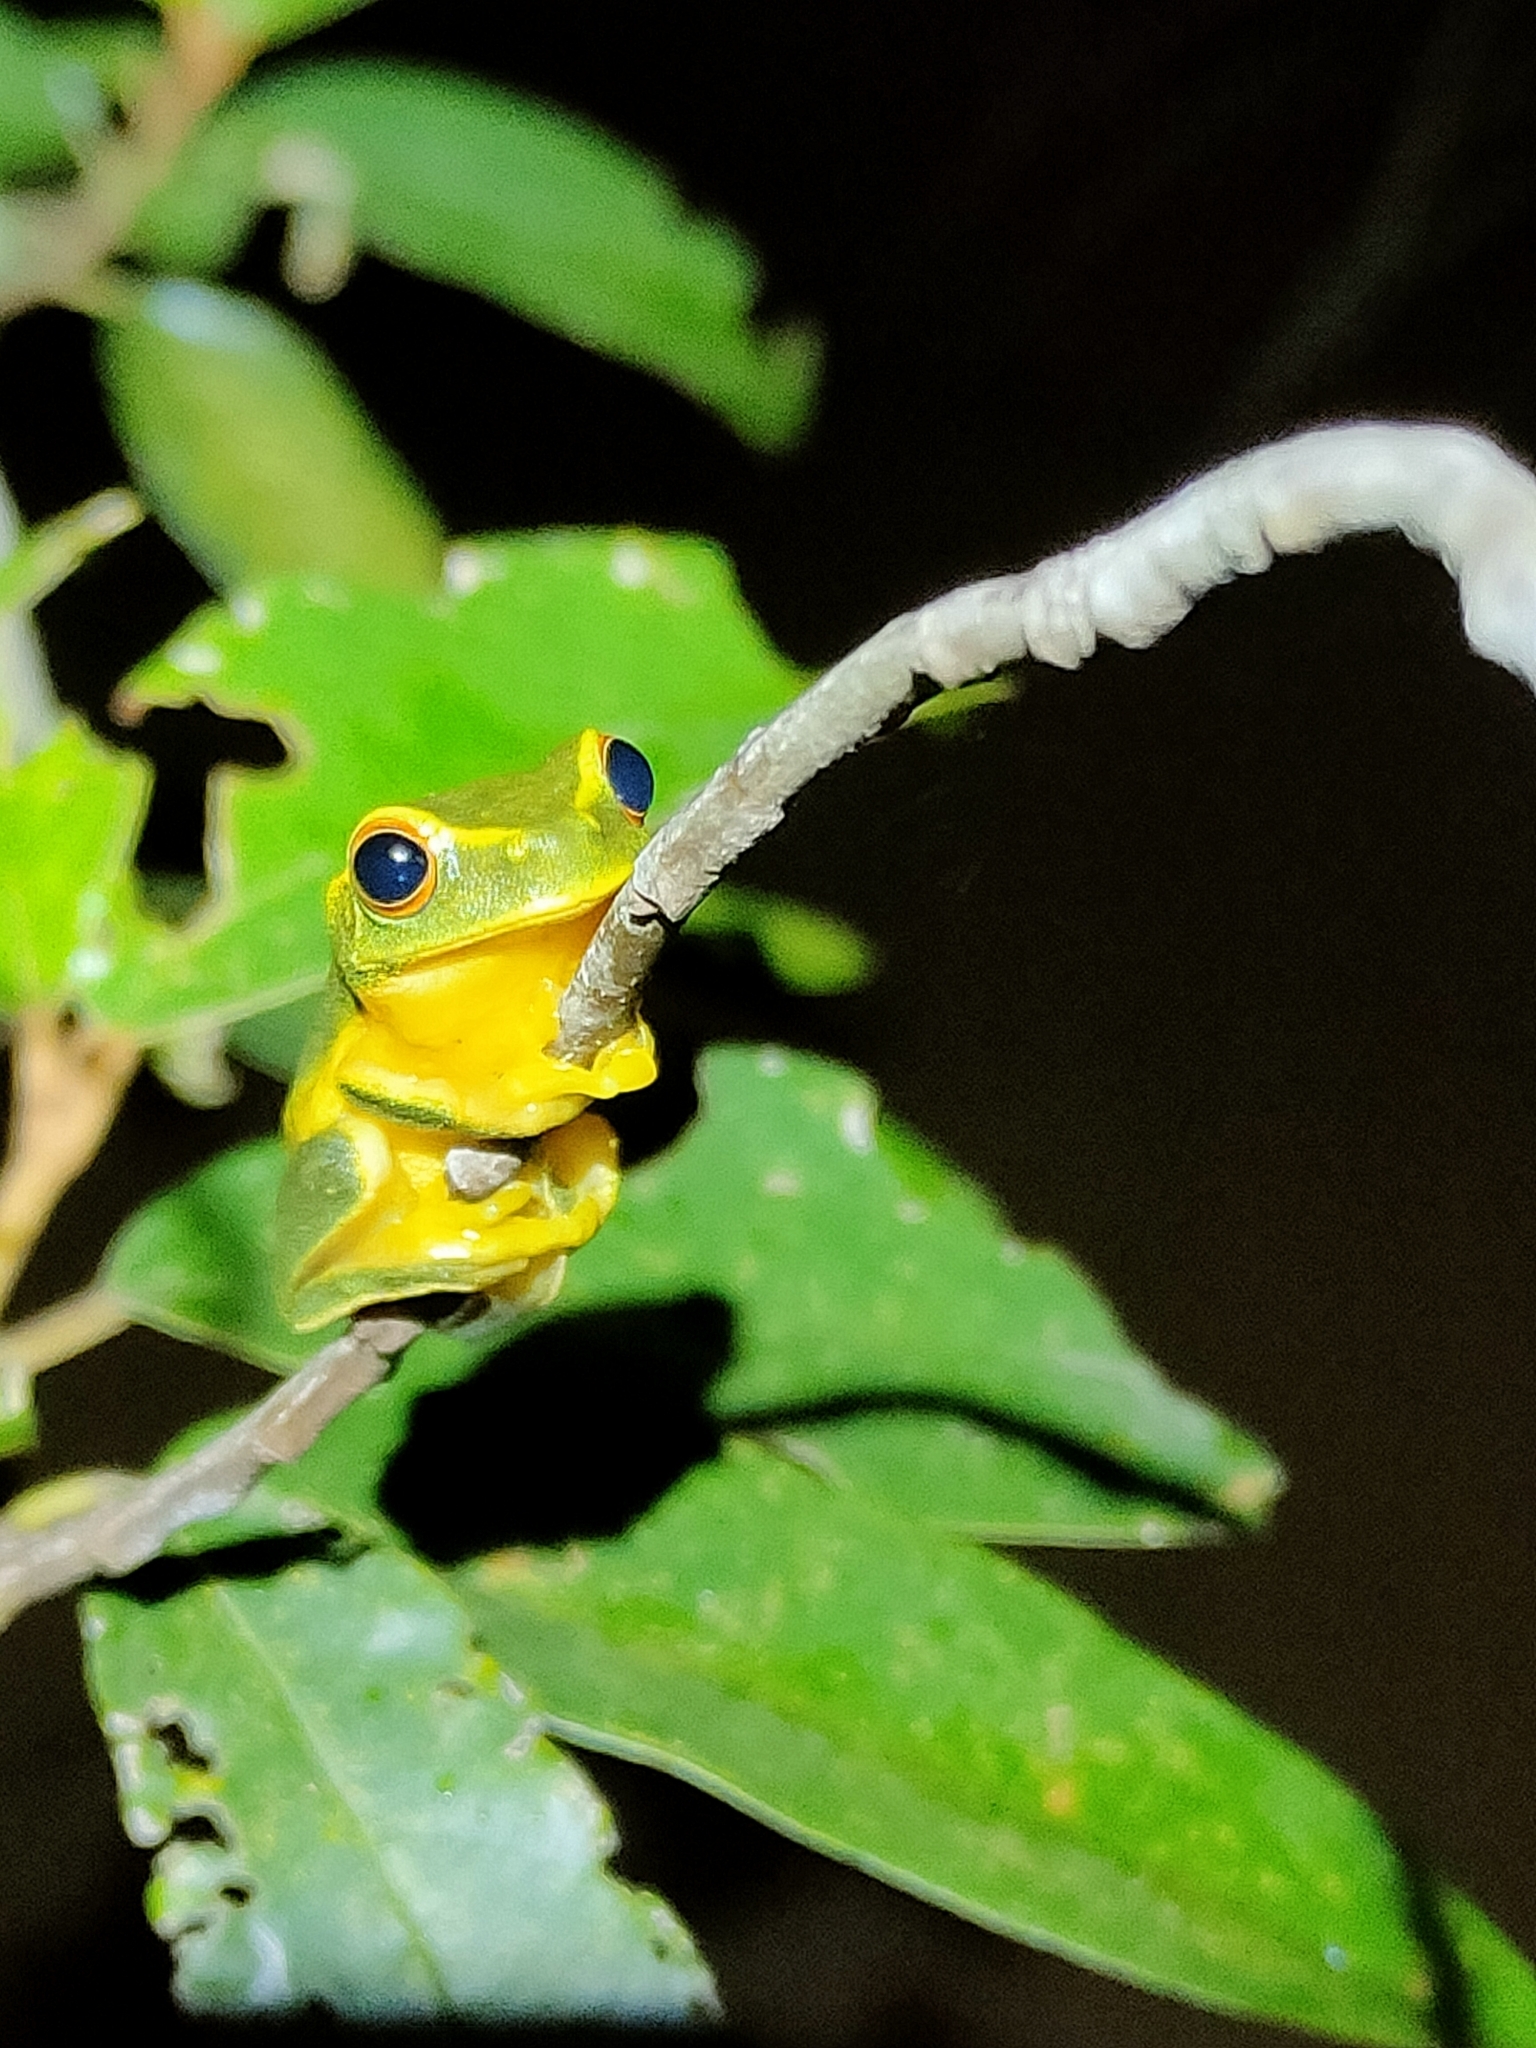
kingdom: Animalia
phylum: Chordata
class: Amphibia
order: Anura
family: Pelodryadidae
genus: Ranoidea
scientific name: Ranoidea gracilenta
